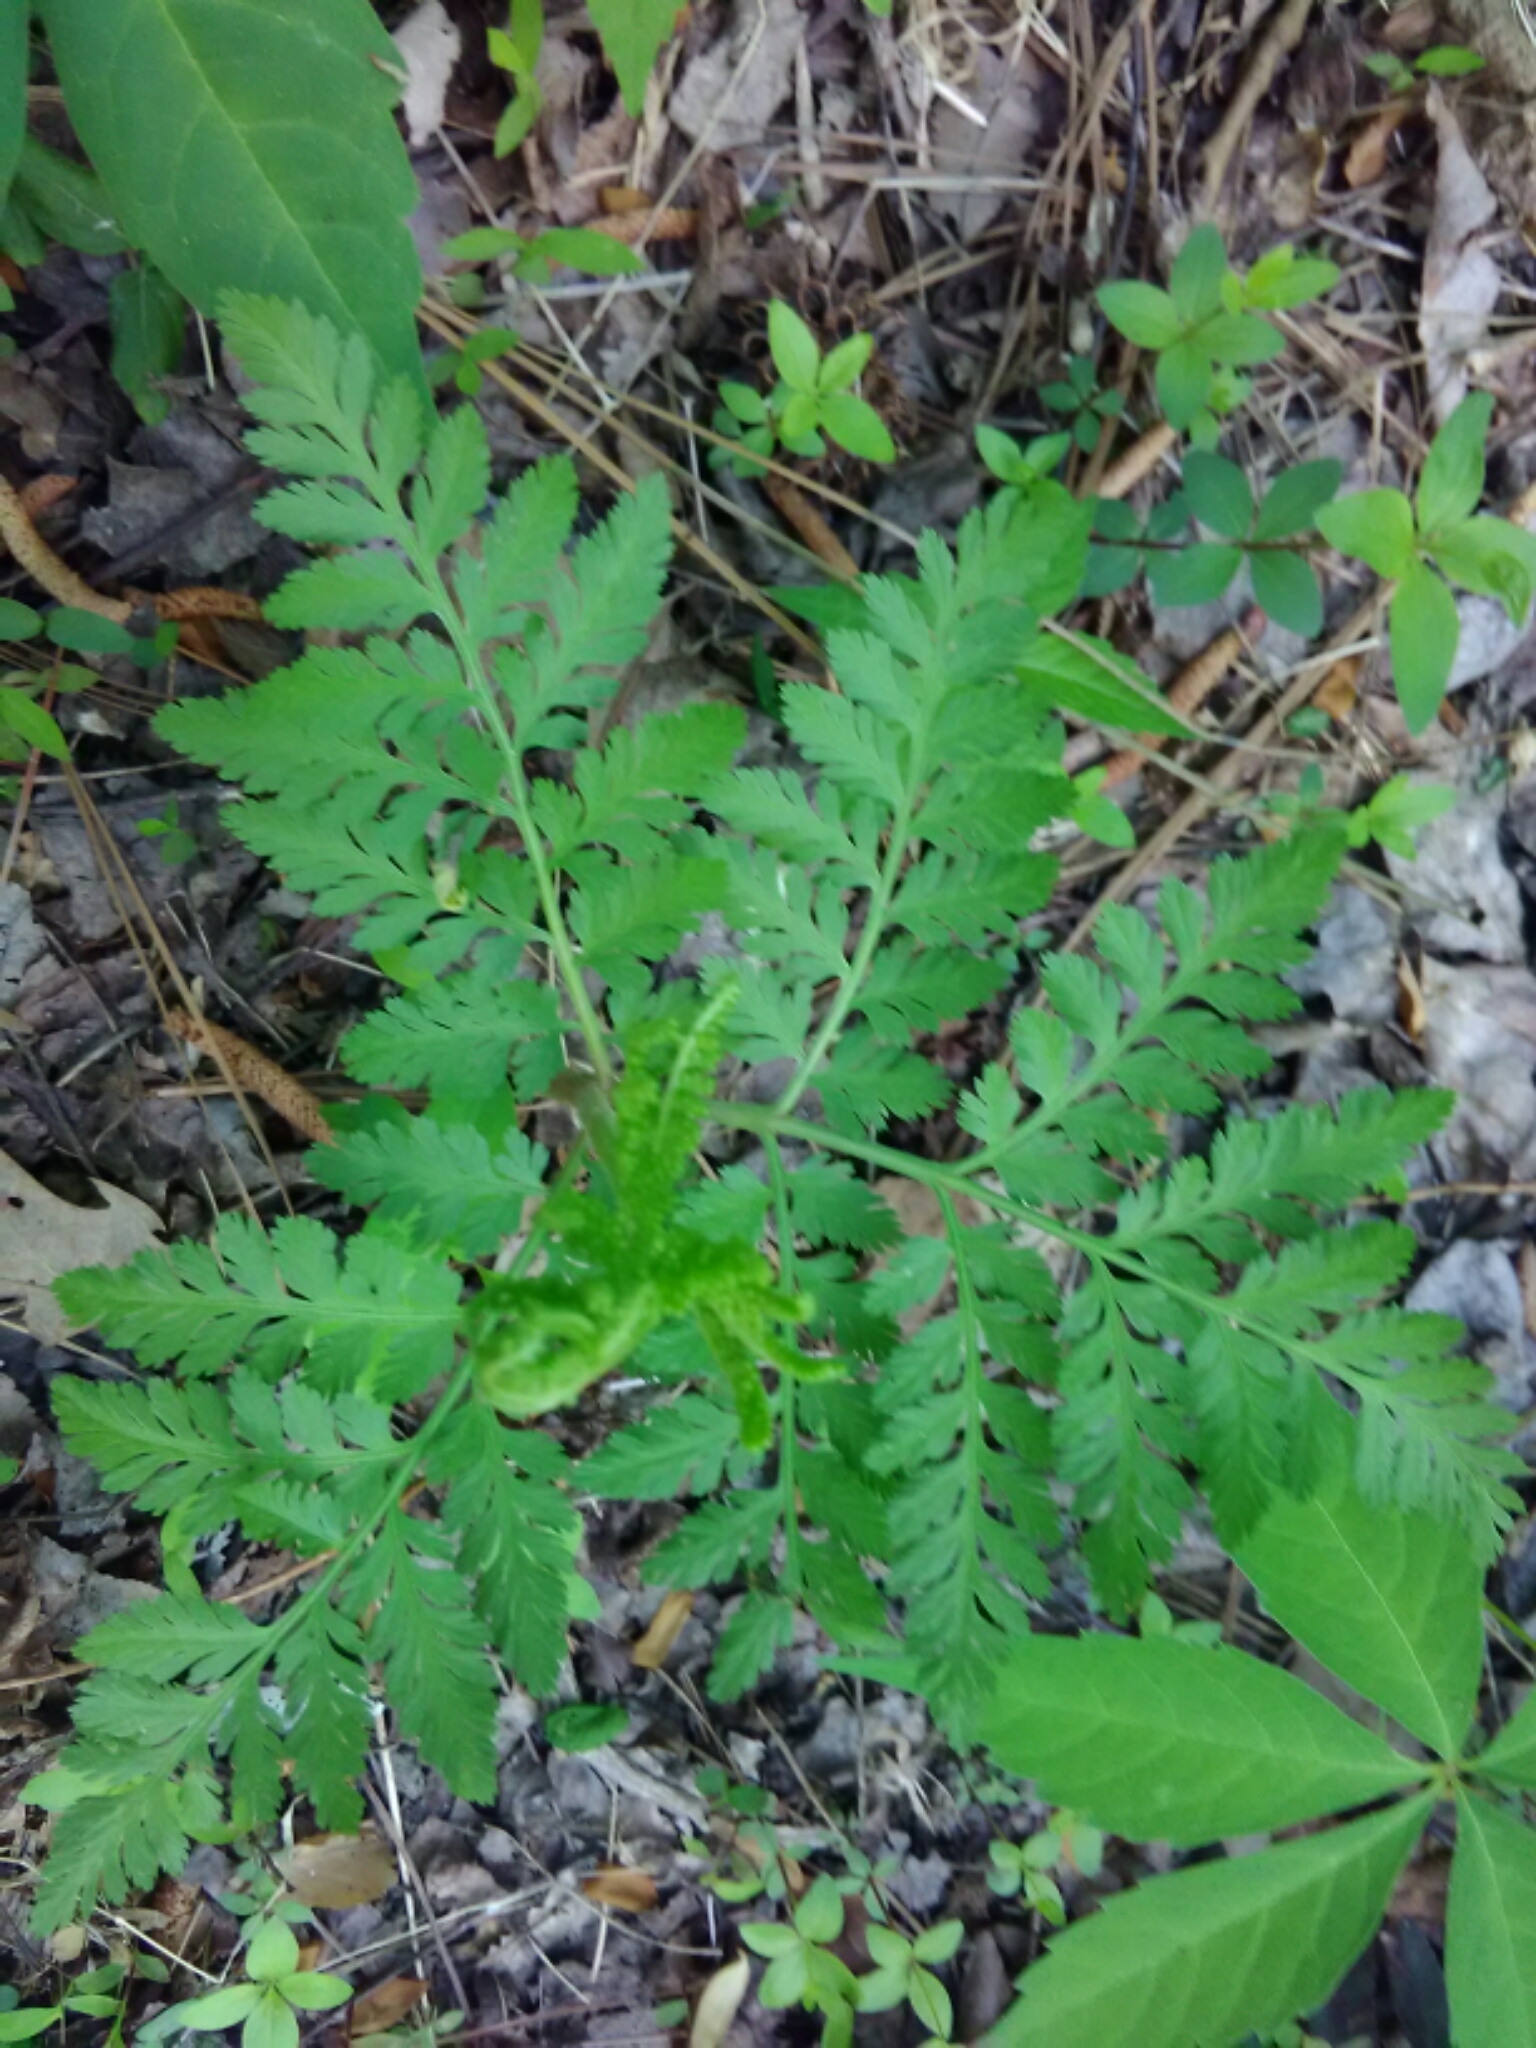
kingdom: Plantae
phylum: Tracheophyta
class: Polypodiopsida
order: Ophioglossales
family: Ophioglossaceae
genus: Botrypus
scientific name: Botrypus virginianus
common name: Common grapefern
